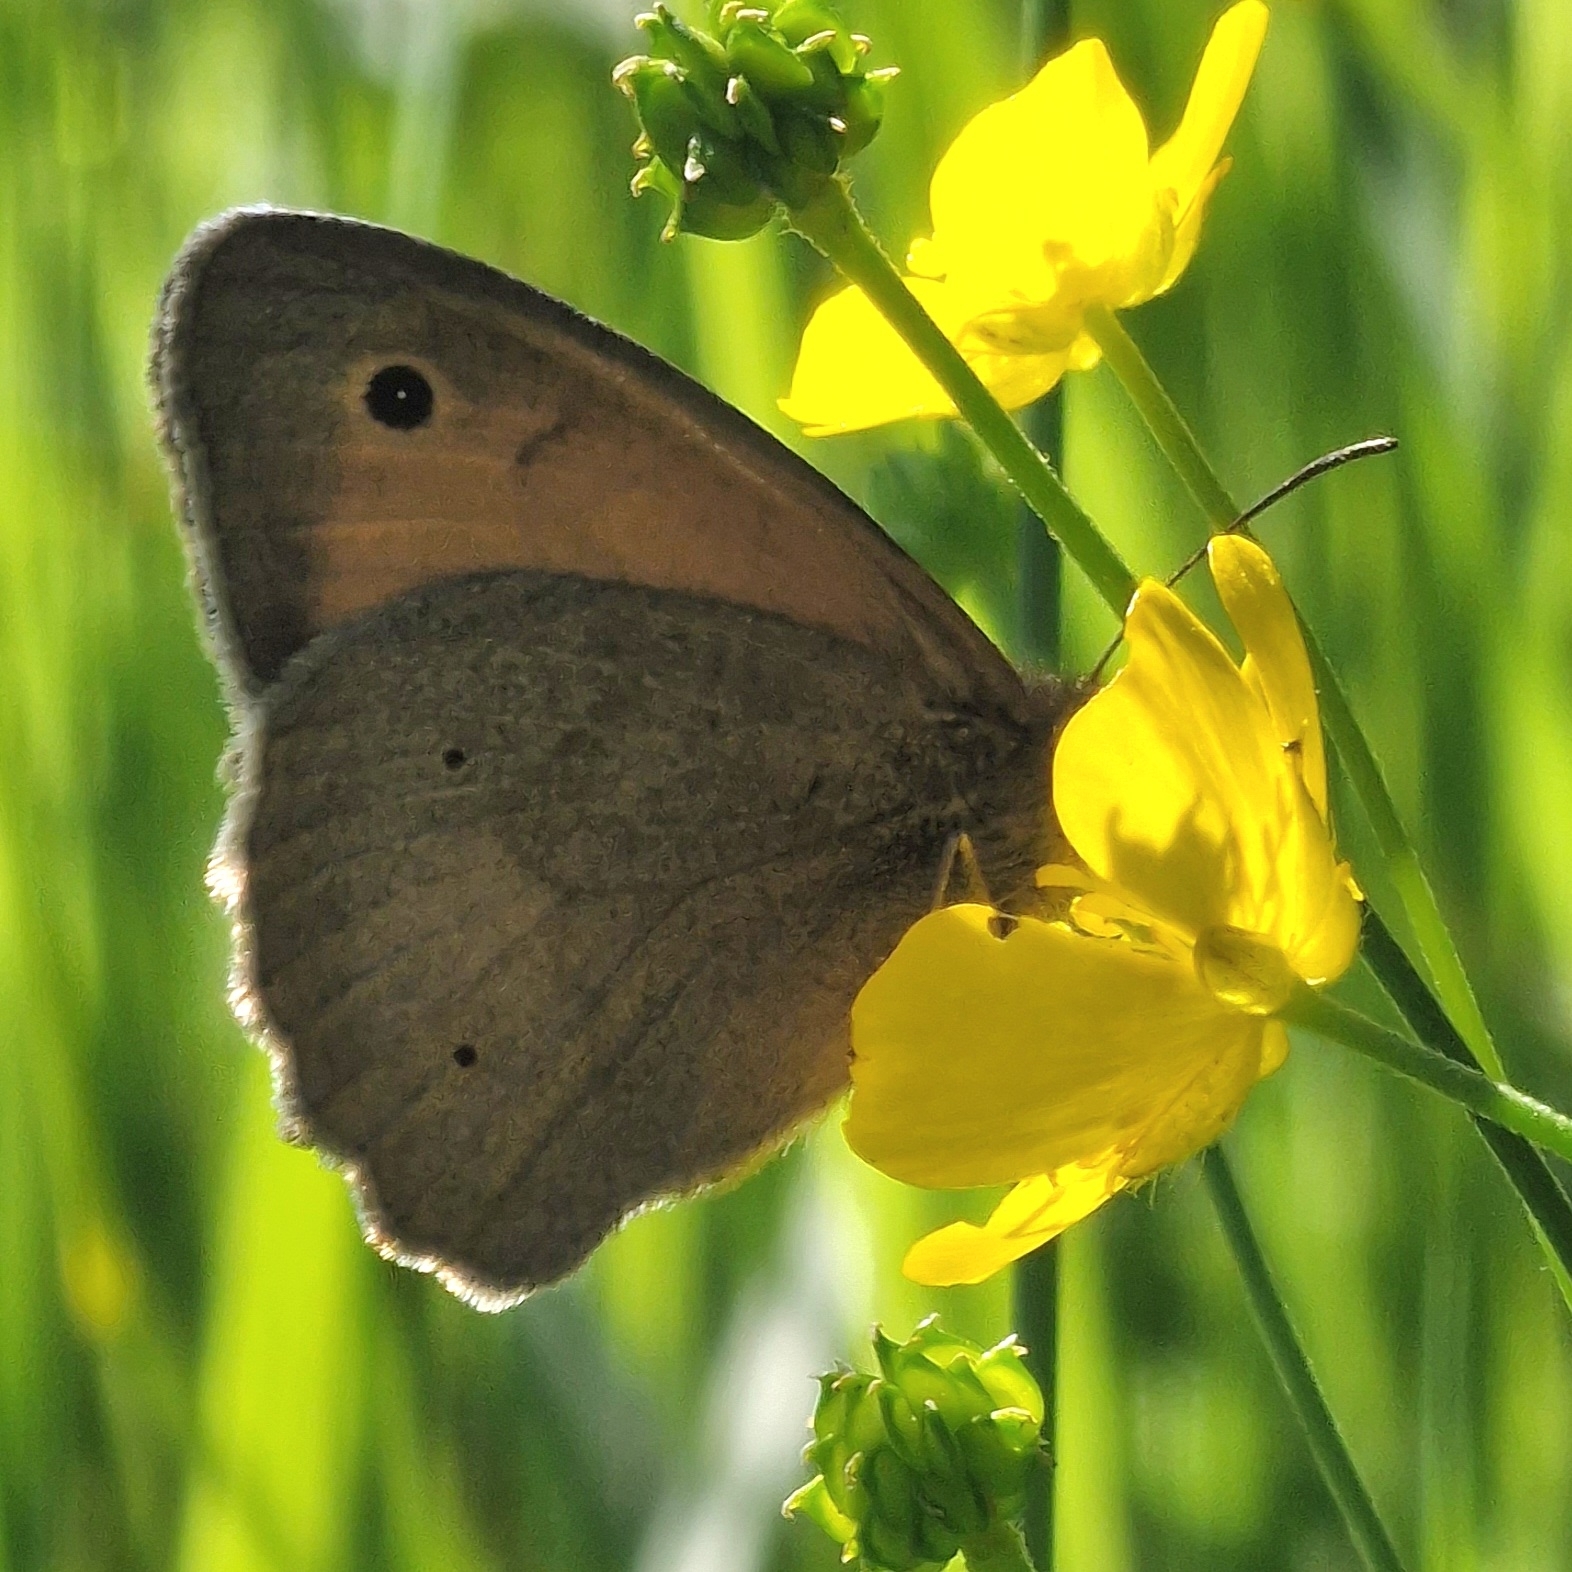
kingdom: Animalia
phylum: Arthropoda
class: Insecta
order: Lepidoptera
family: Nymphalidae
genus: Maniola
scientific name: Maniola jurtina
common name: Meadow brown
